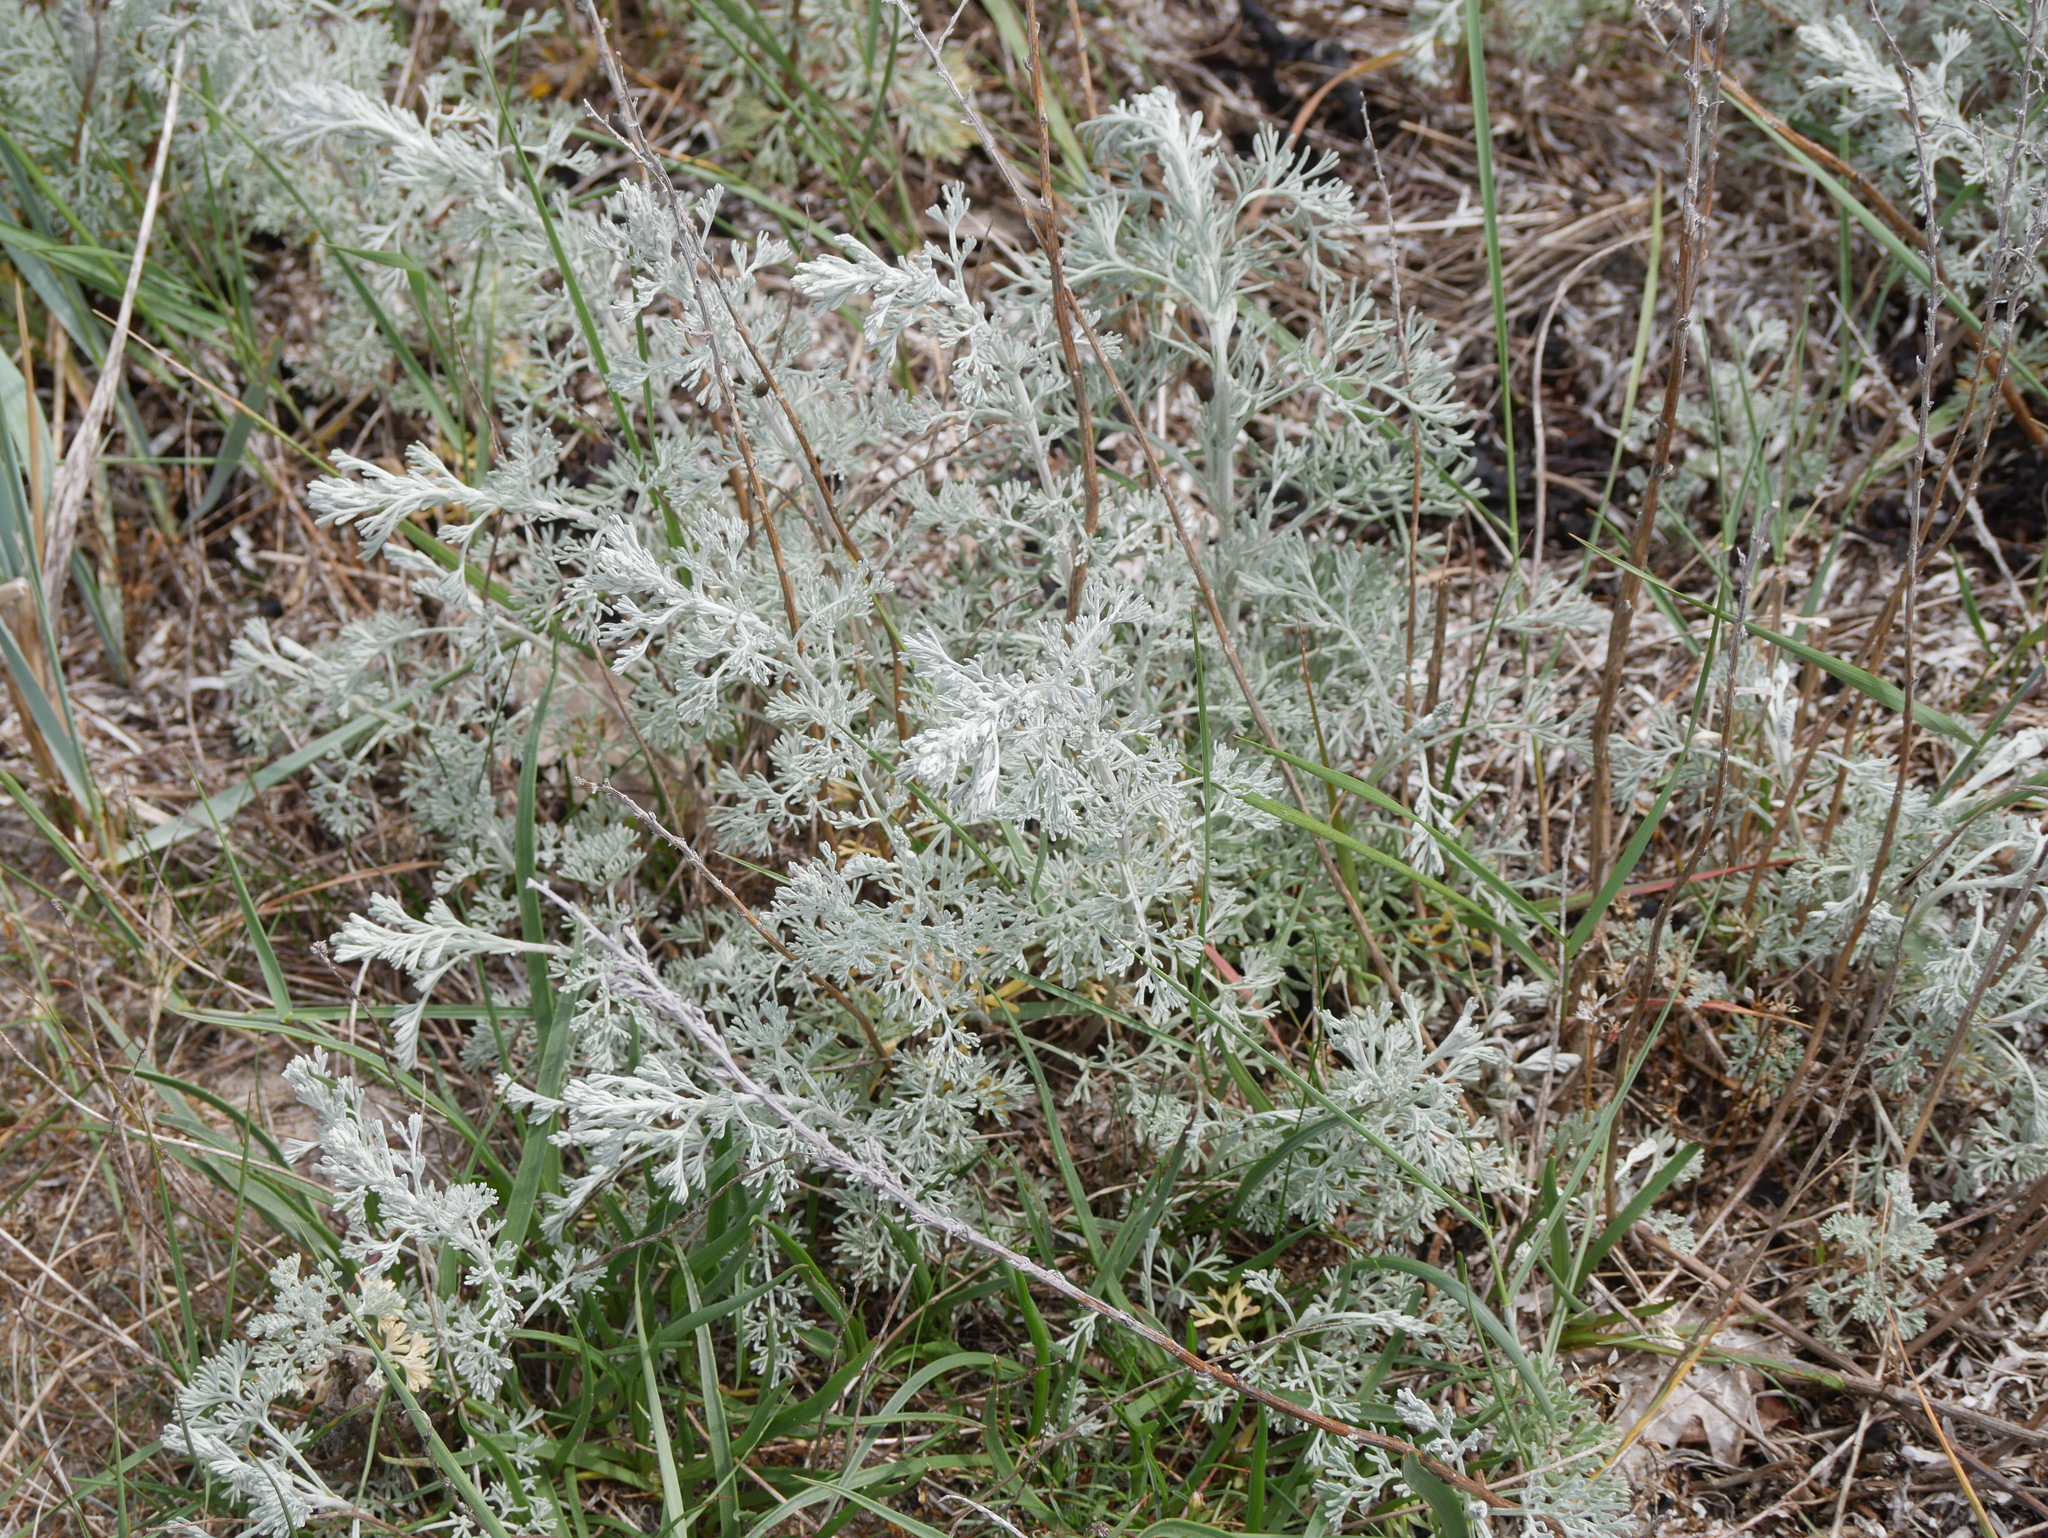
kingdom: Plantae
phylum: Tracheophyta
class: Magnoliopsida
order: Asterales
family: Asteraceae
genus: Artemisia
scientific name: Artemisia maritima
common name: Wormseed
